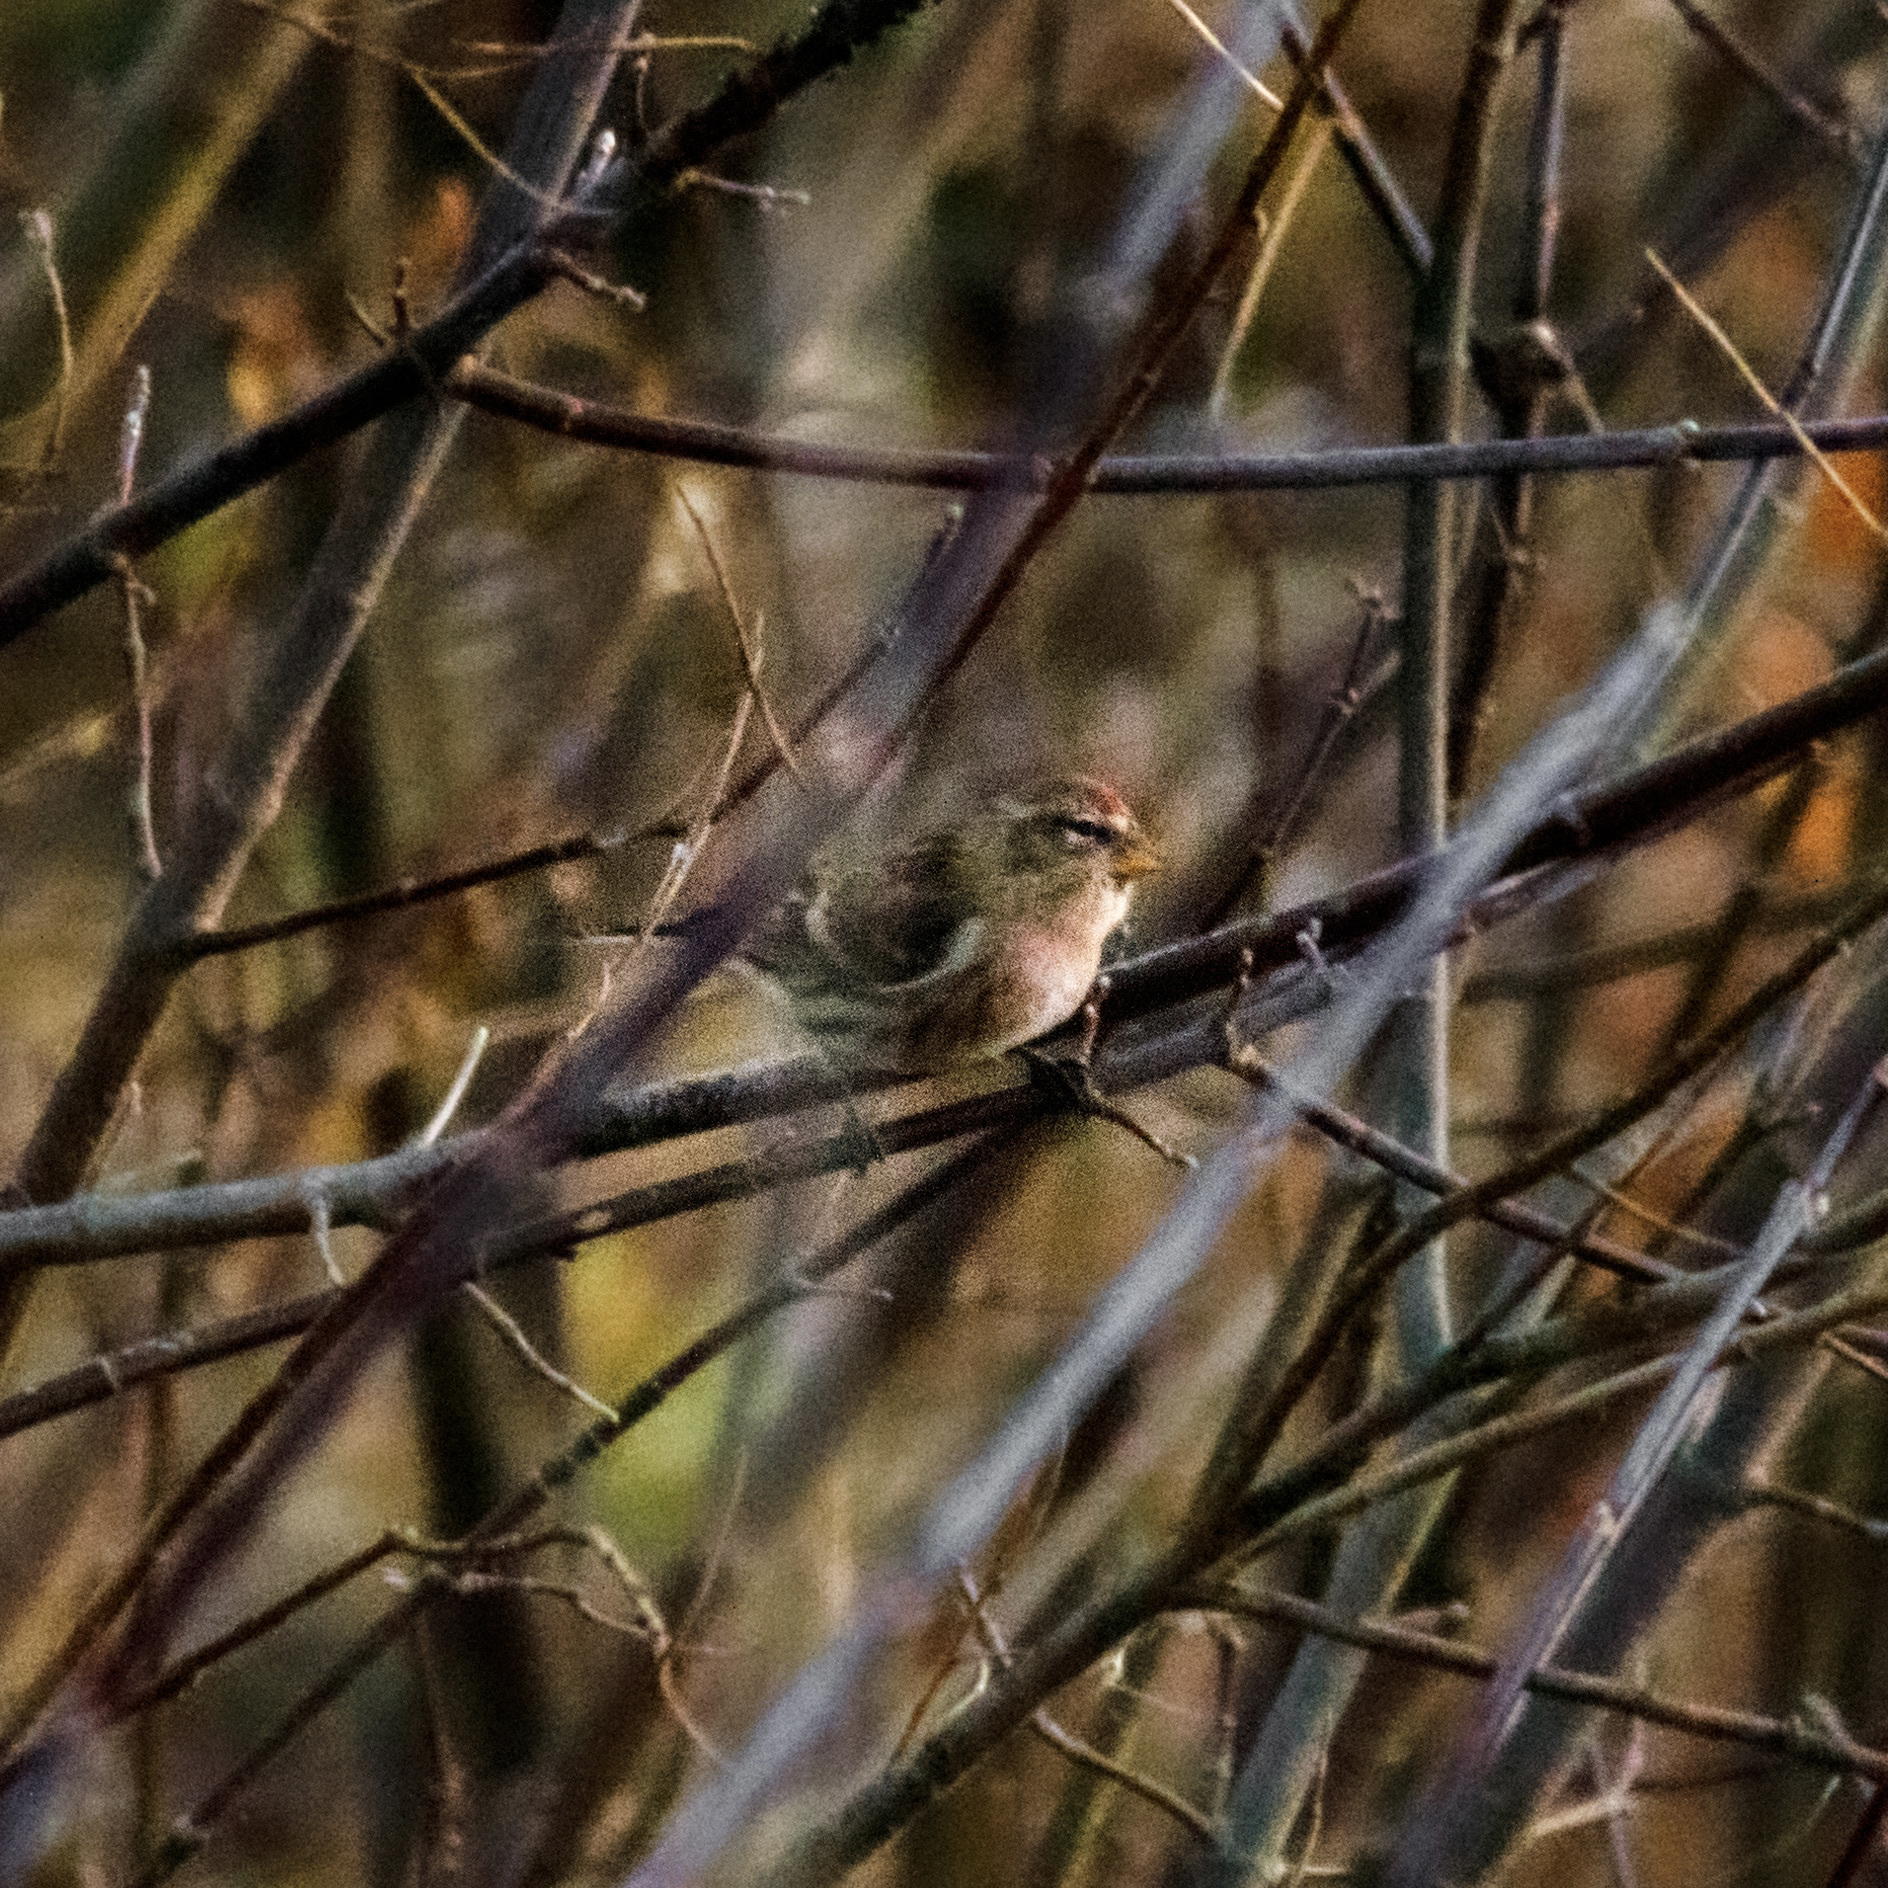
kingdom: Animalia
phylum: Chordata
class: Aves
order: Passeriformes
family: Fringillidae
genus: Acanthis
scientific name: Acanthis flammea
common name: Common redpoll
